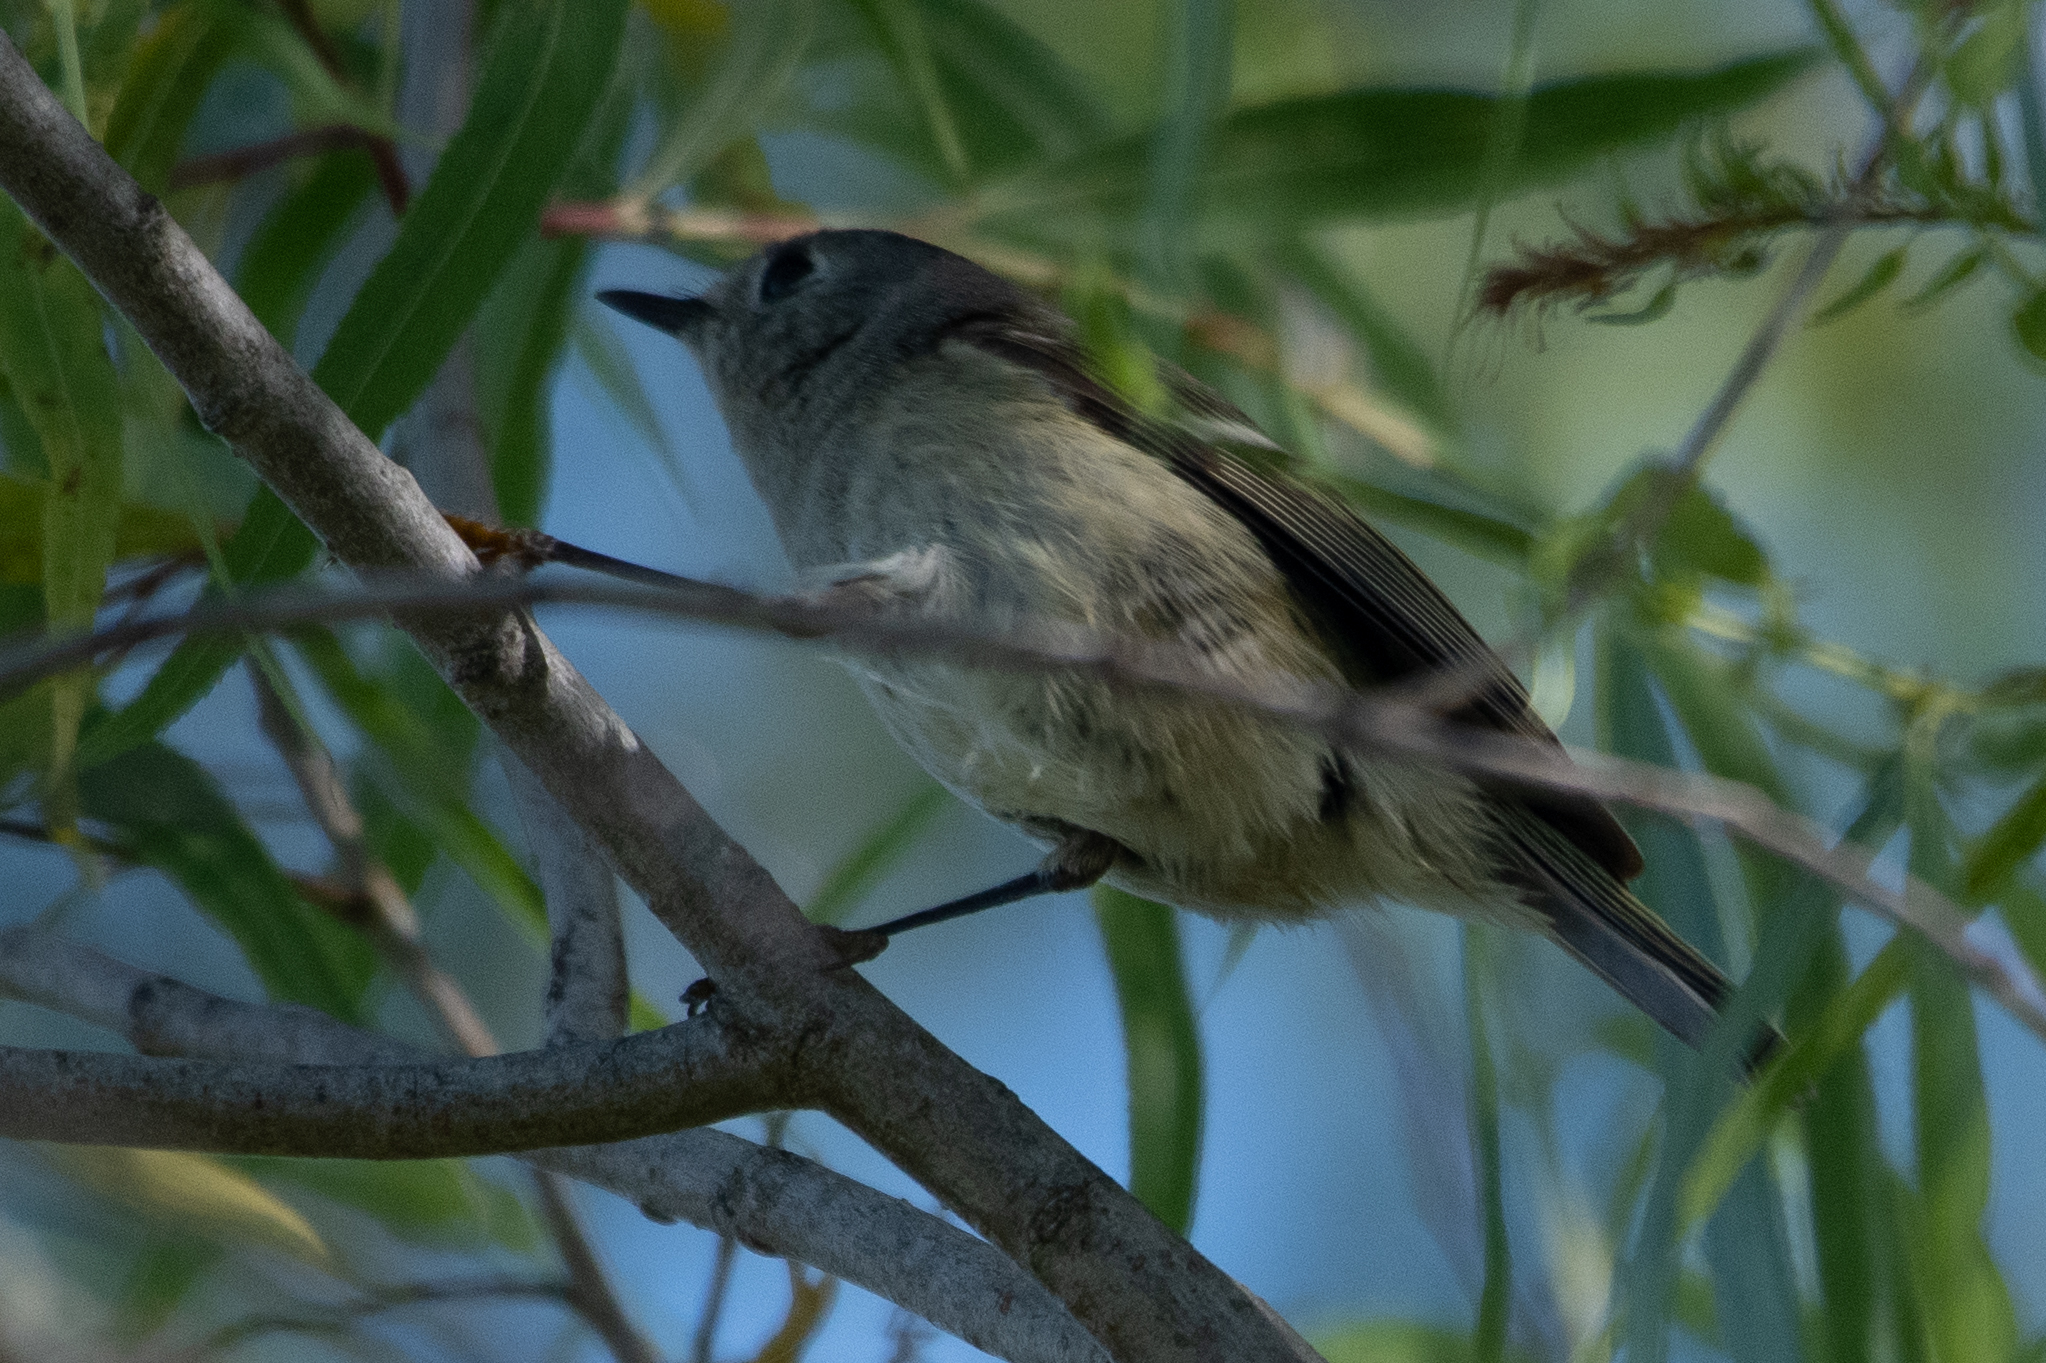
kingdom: Animalia
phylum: Chordata
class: Aves
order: Passeriformes
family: Regulidae
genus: Regulus
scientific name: Regulus calendula
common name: Ruby-crowned kinglet
